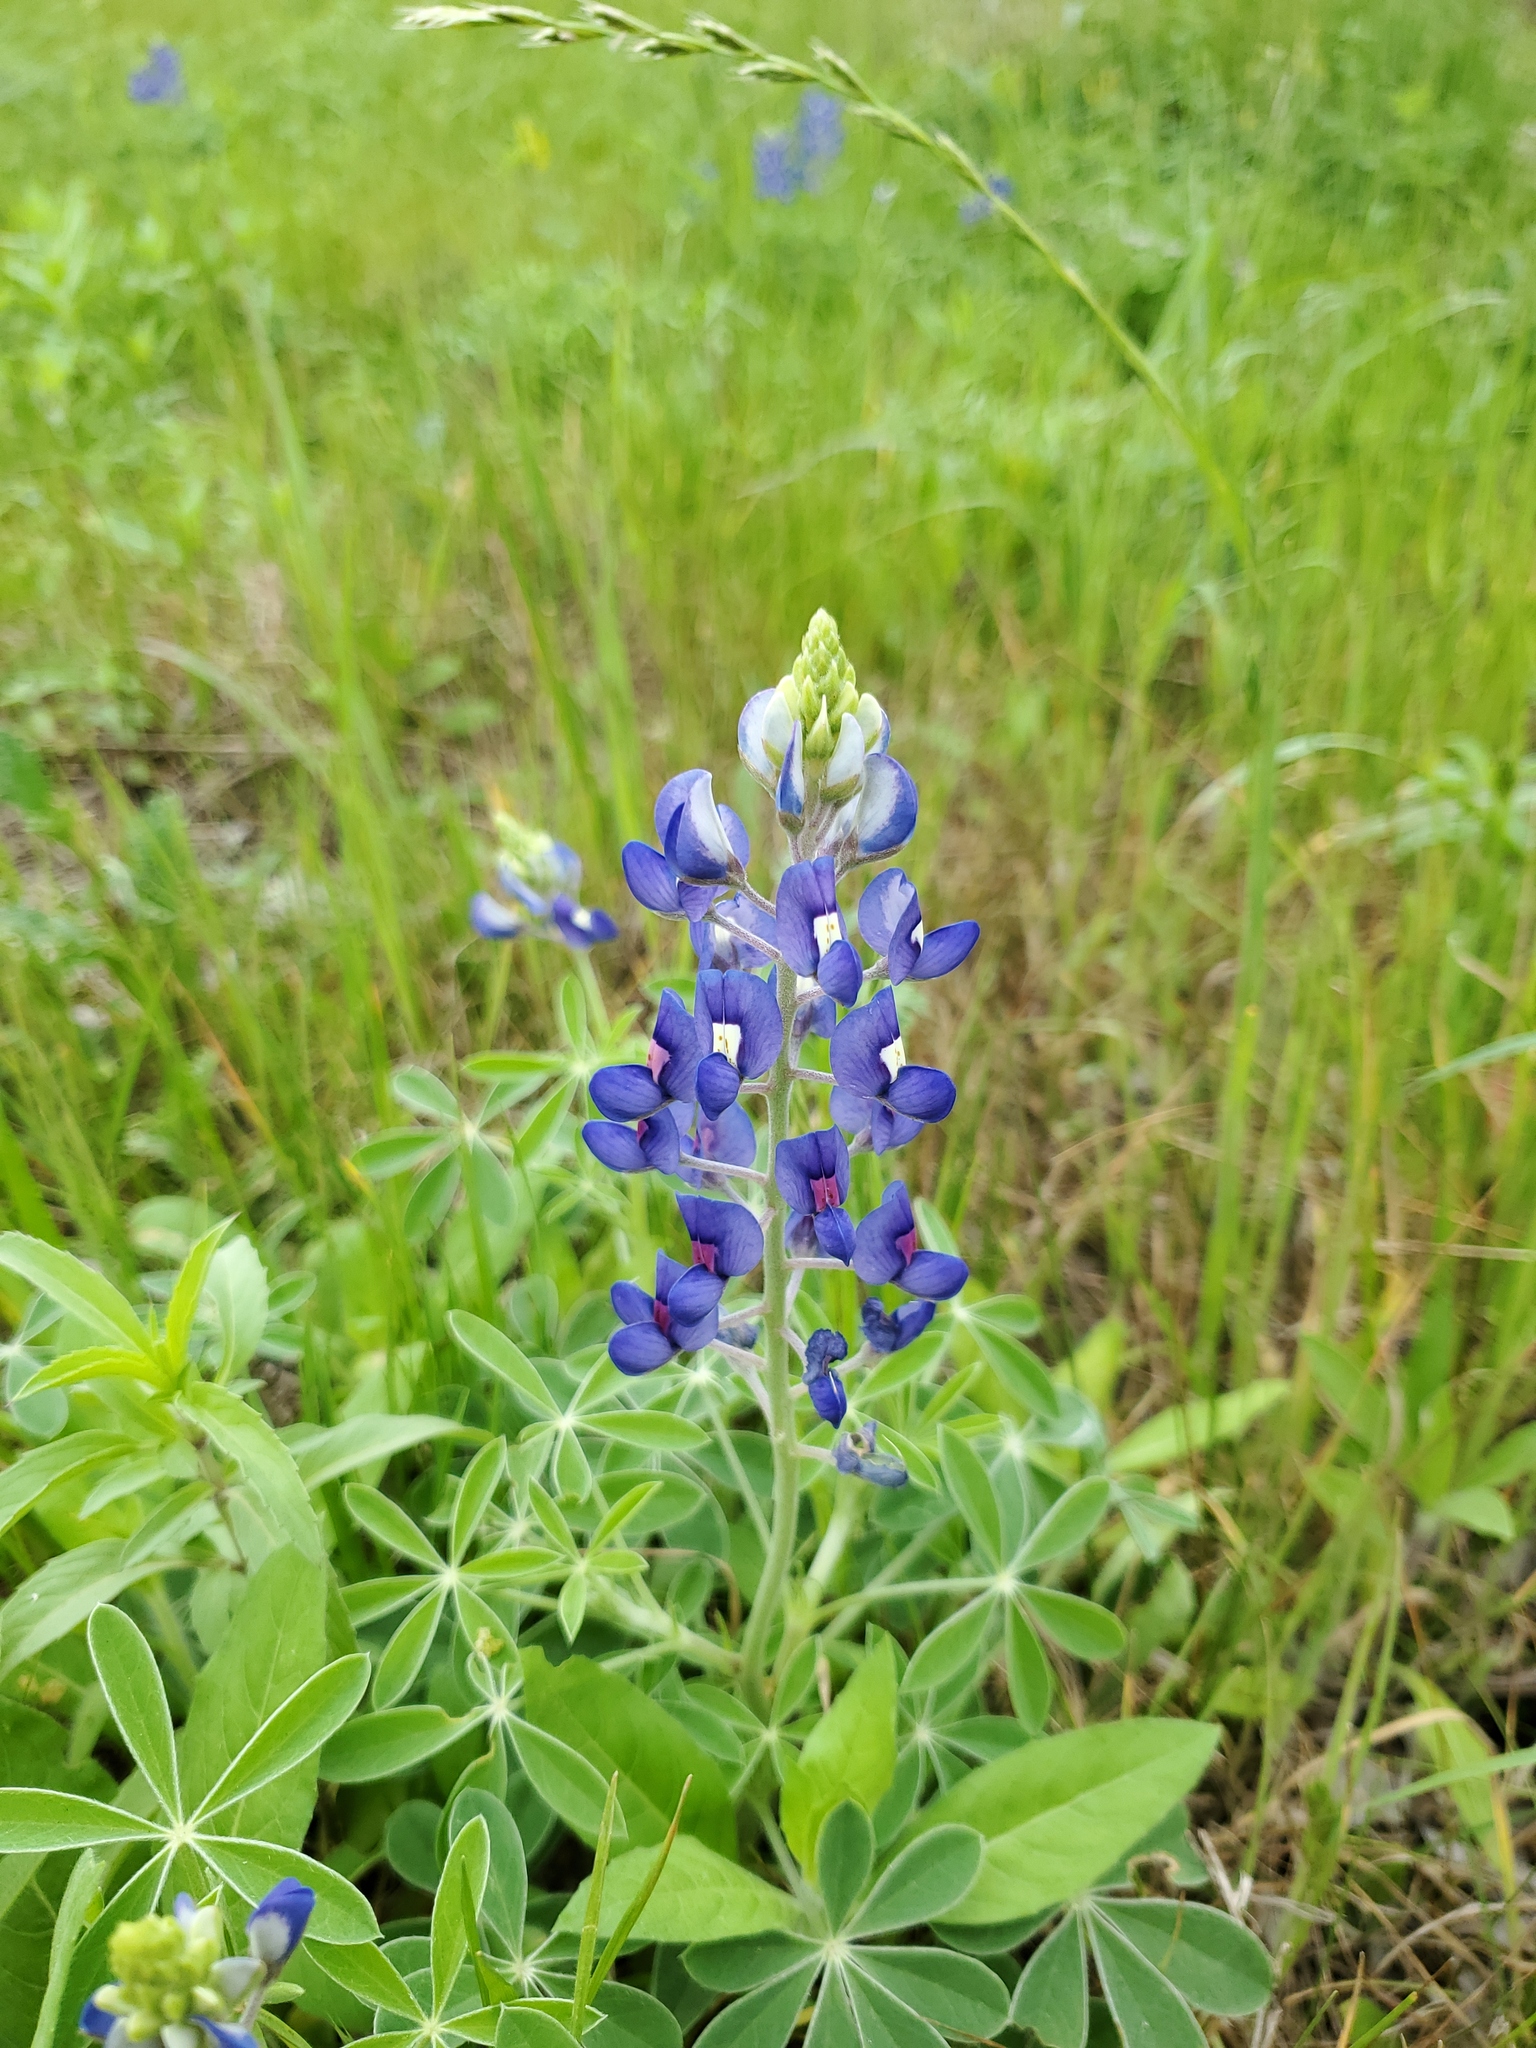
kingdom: Plantae
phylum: Tracheophyta
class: Magnoliopsida
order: Fabales
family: Fabaceae
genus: Lupinus
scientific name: Lupinus texensis
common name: Texas bluebonnet
